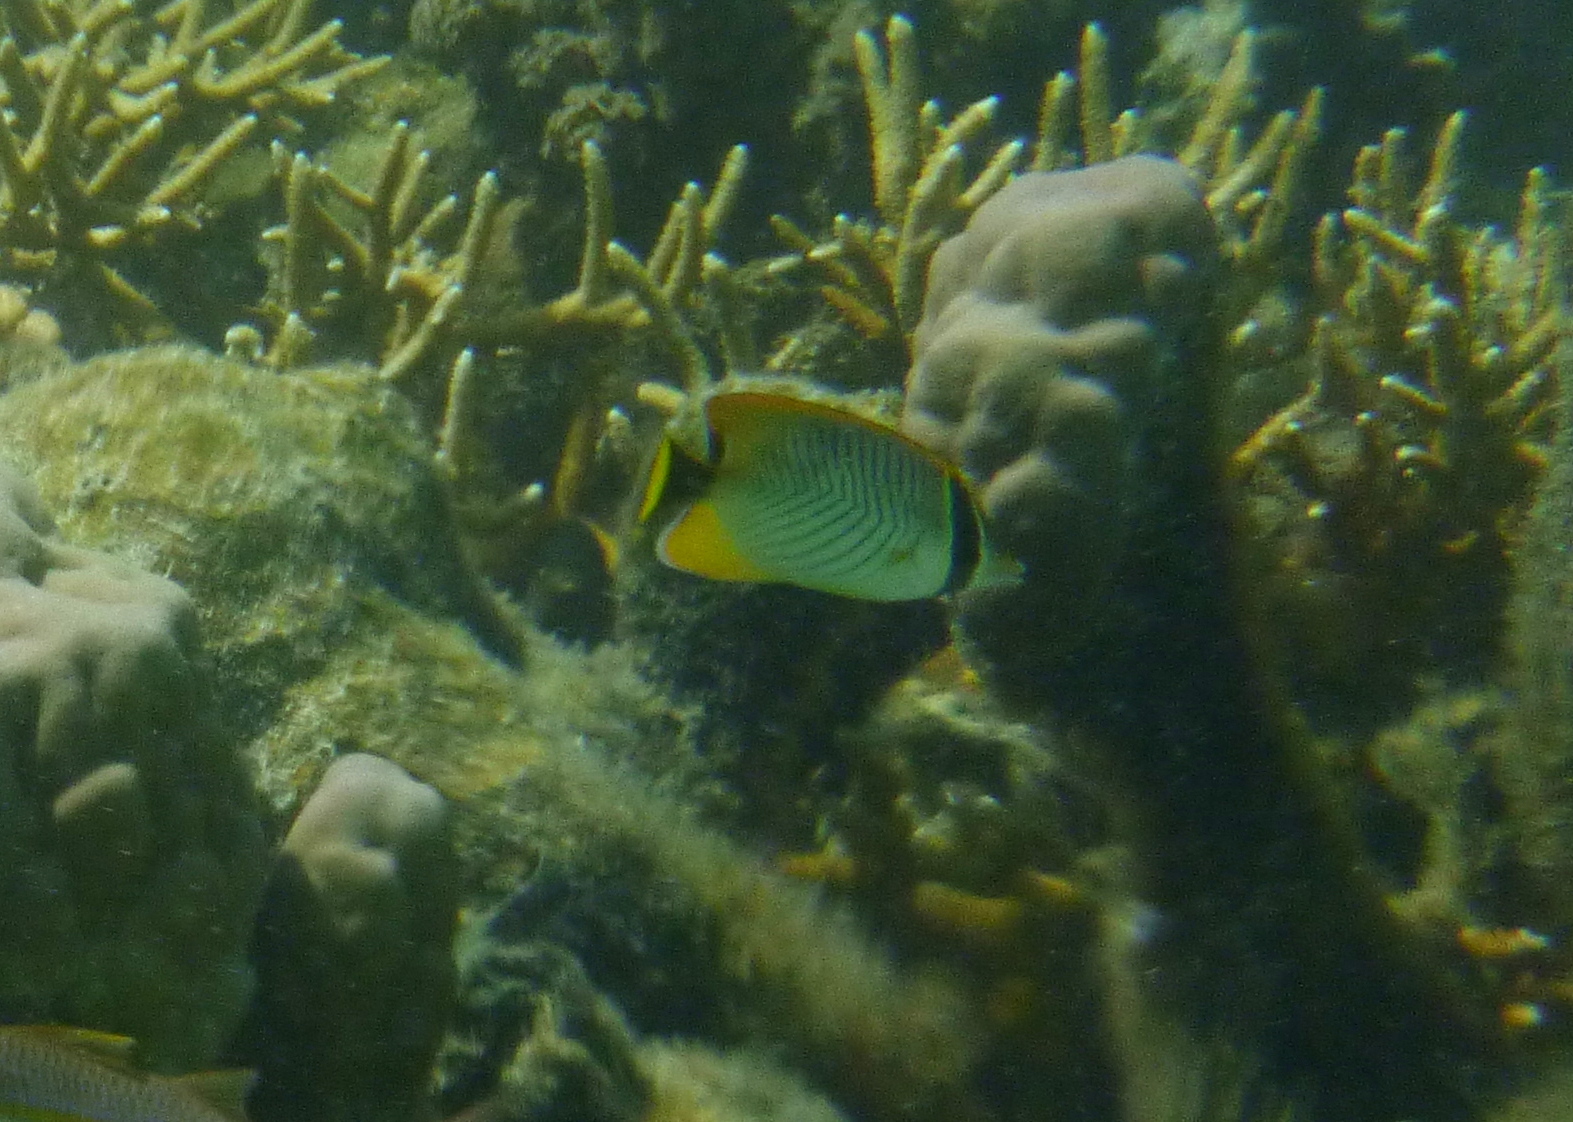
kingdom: Animalia
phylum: Chordata
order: Perciformes
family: Chaetodontidae
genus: Chaetodon
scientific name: Chaetodon trifascialis
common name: Chevroned butterflyfish
